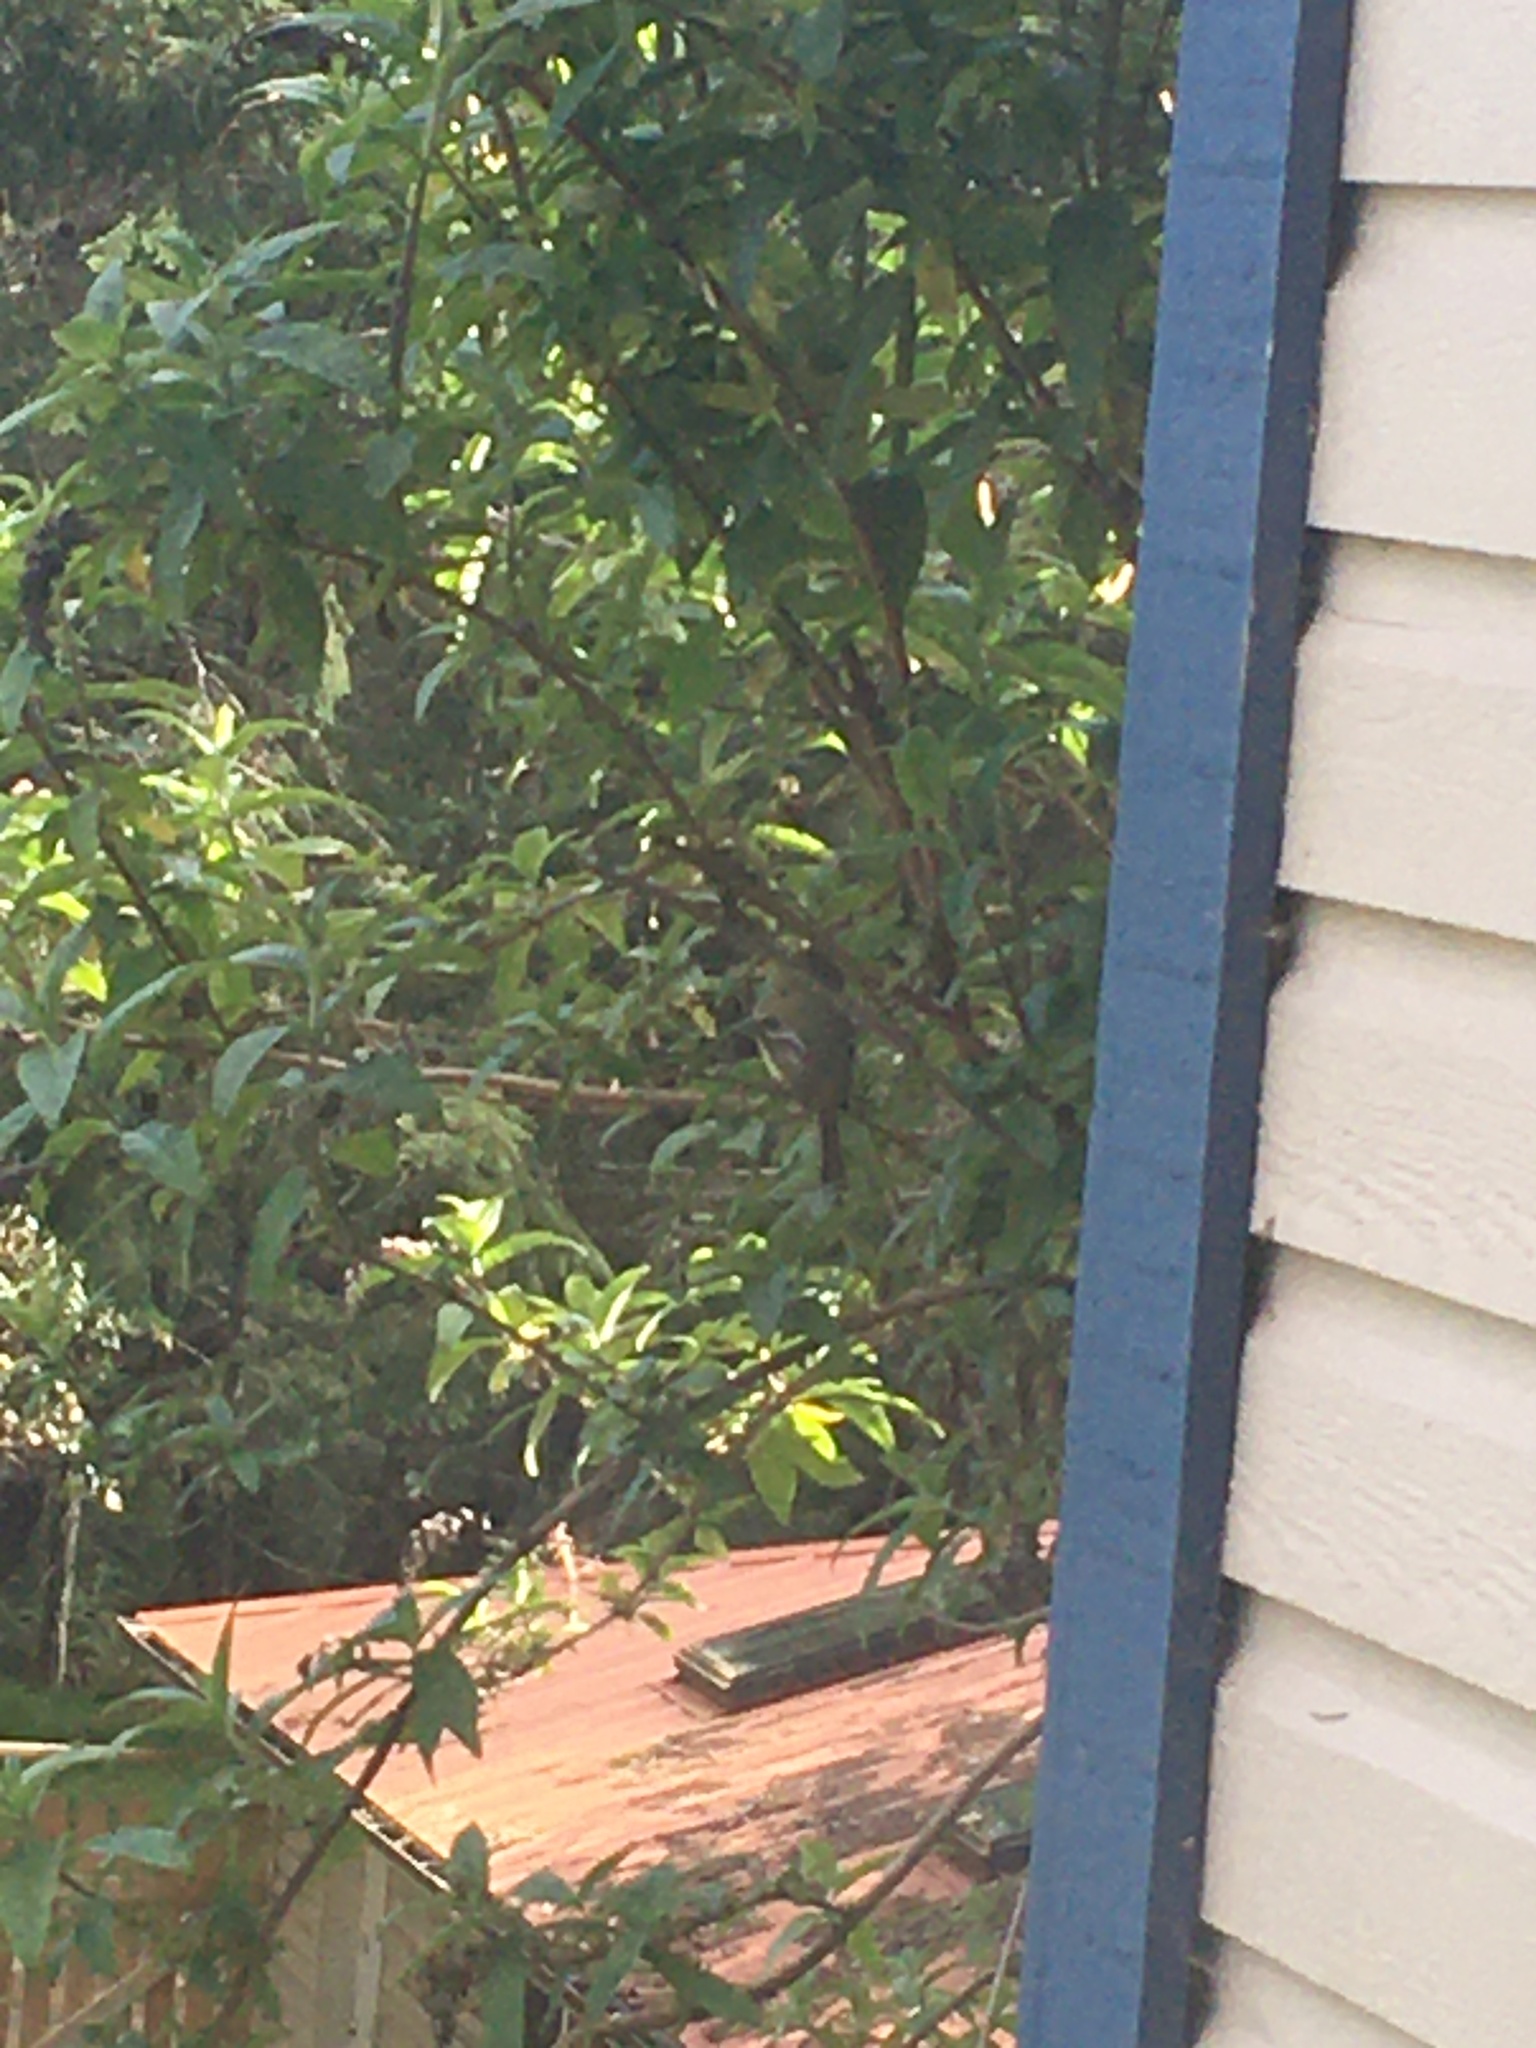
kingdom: Animalia
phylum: Chordata
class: Aves
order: Passeriformes
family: Tyrannidae
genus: Empidonax
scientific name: Empidonax difficilis
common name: Pacific-slope flycatcher
